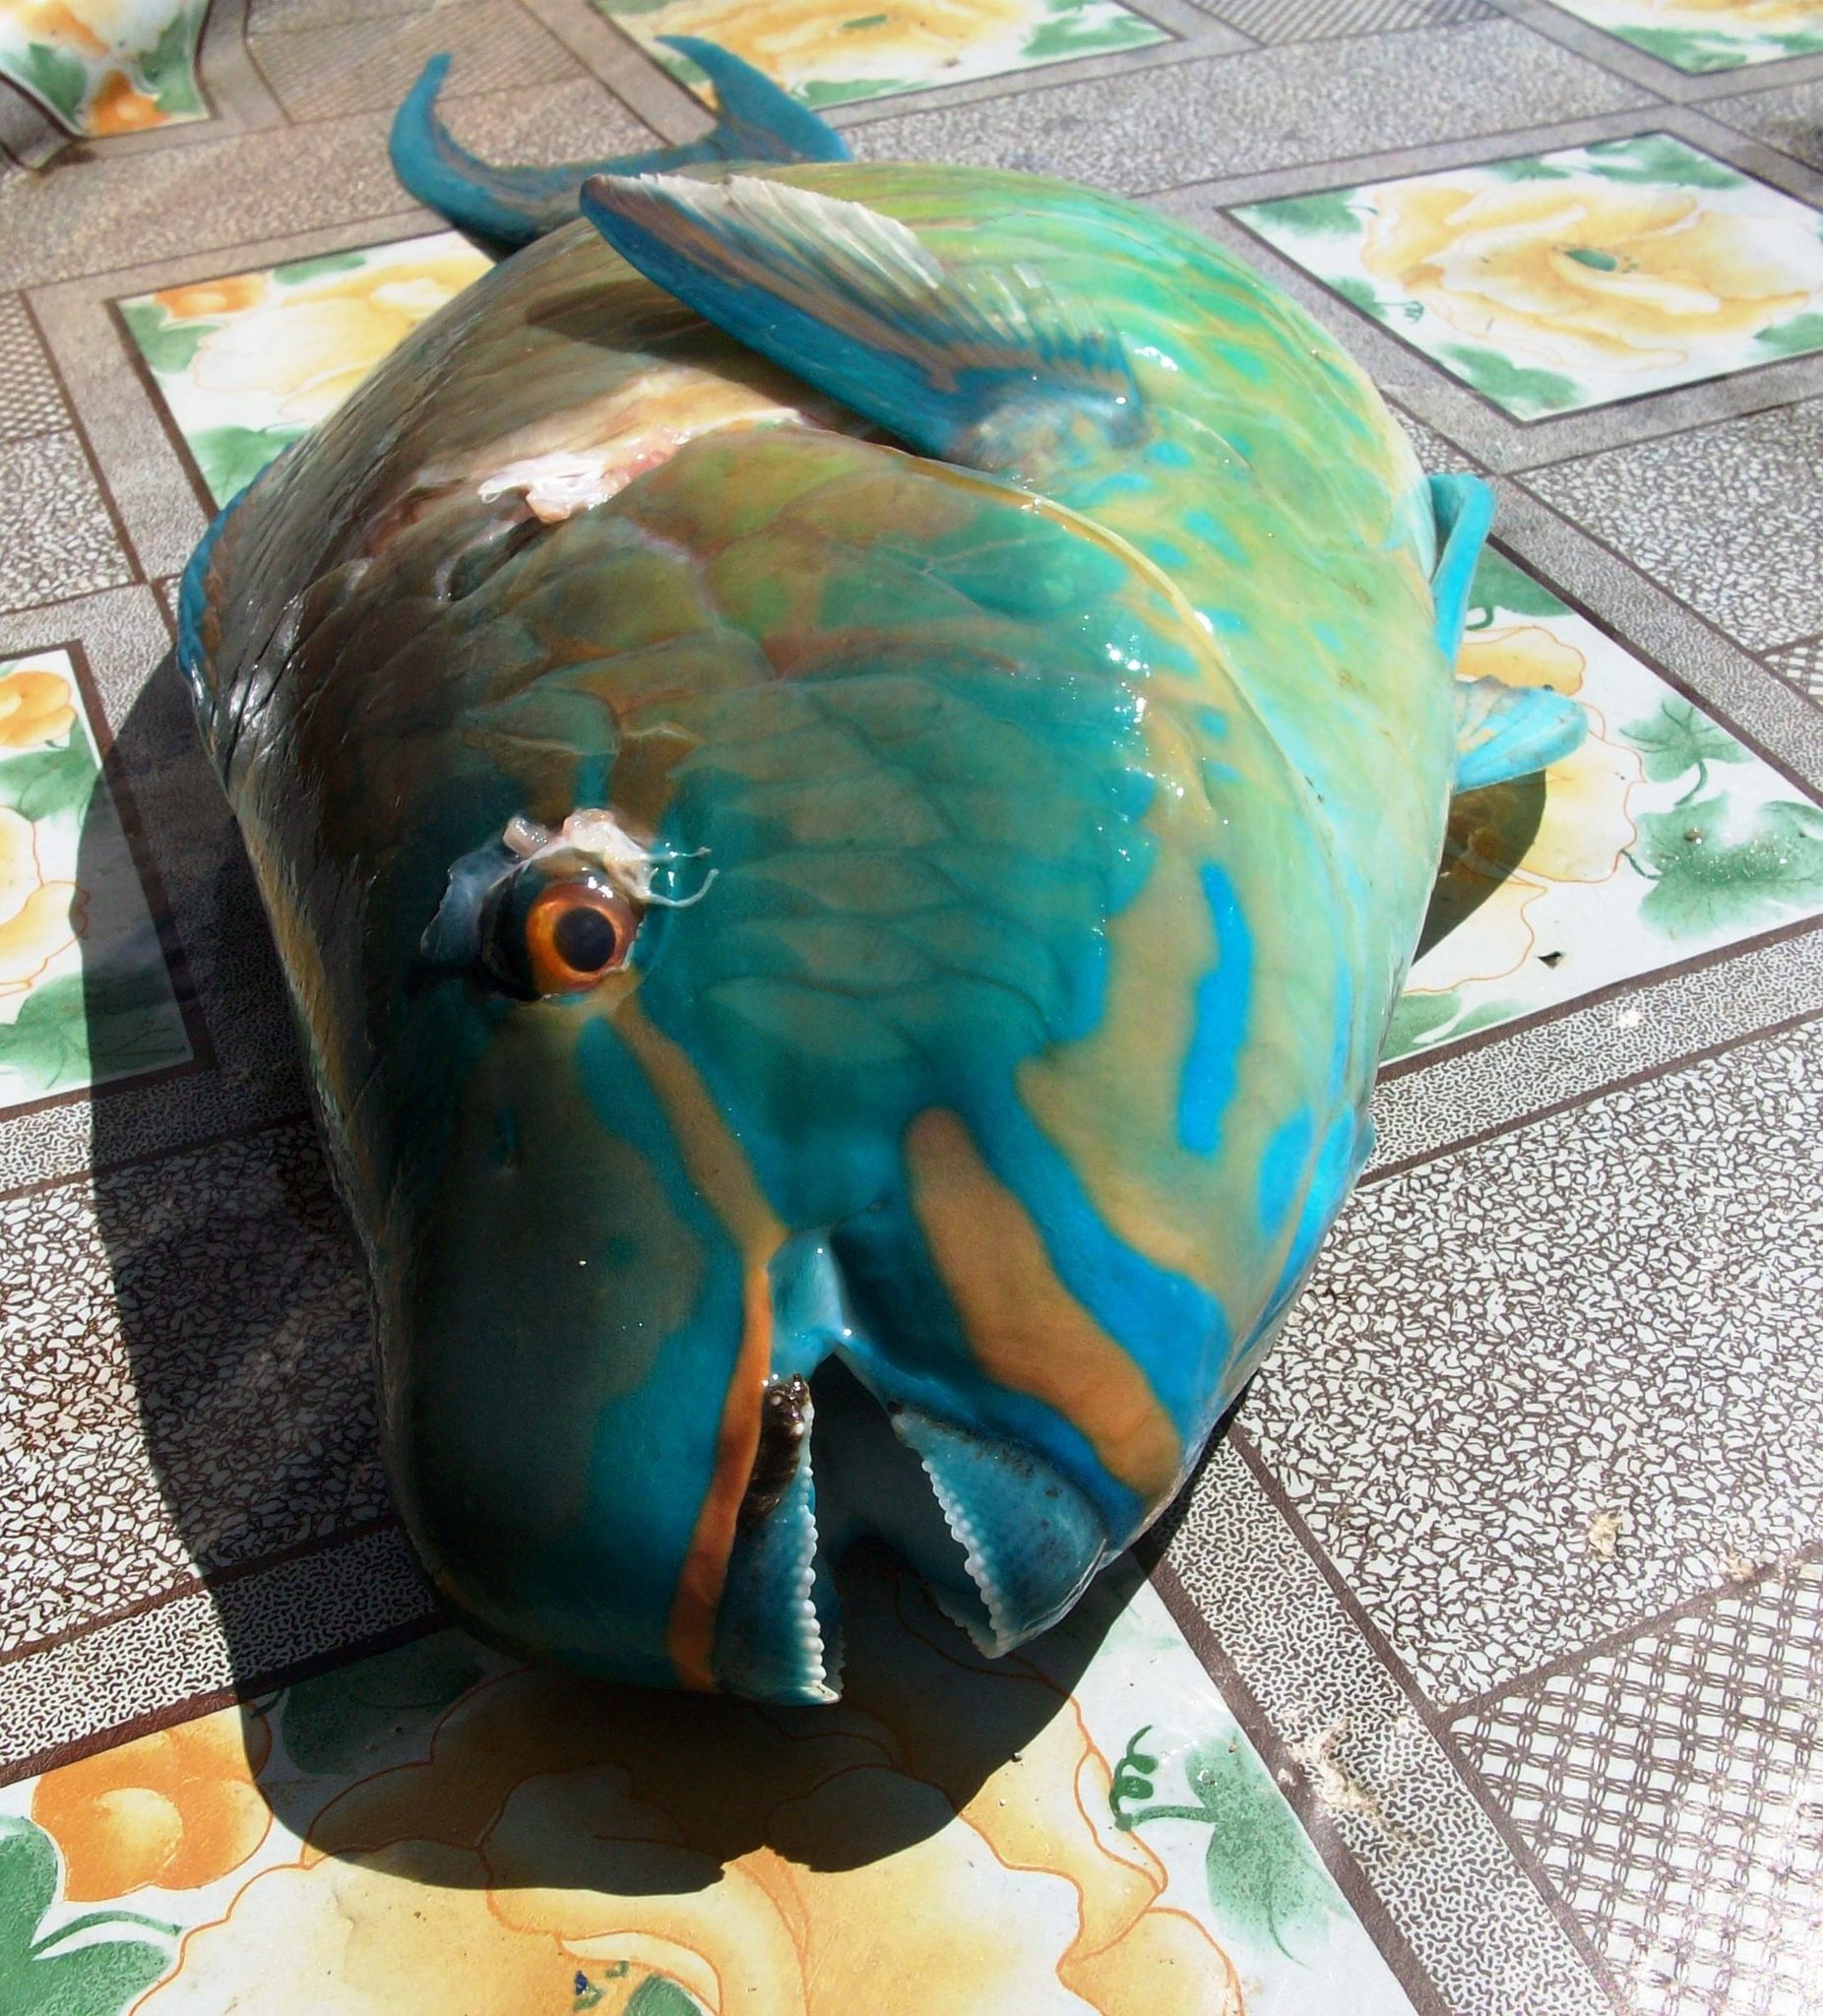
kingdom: Animalia
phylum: Chordata
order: Perciformes
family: Scaridae
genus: Scarus
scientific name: Scarus rubroviolaceus
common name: Ember parrotfish
